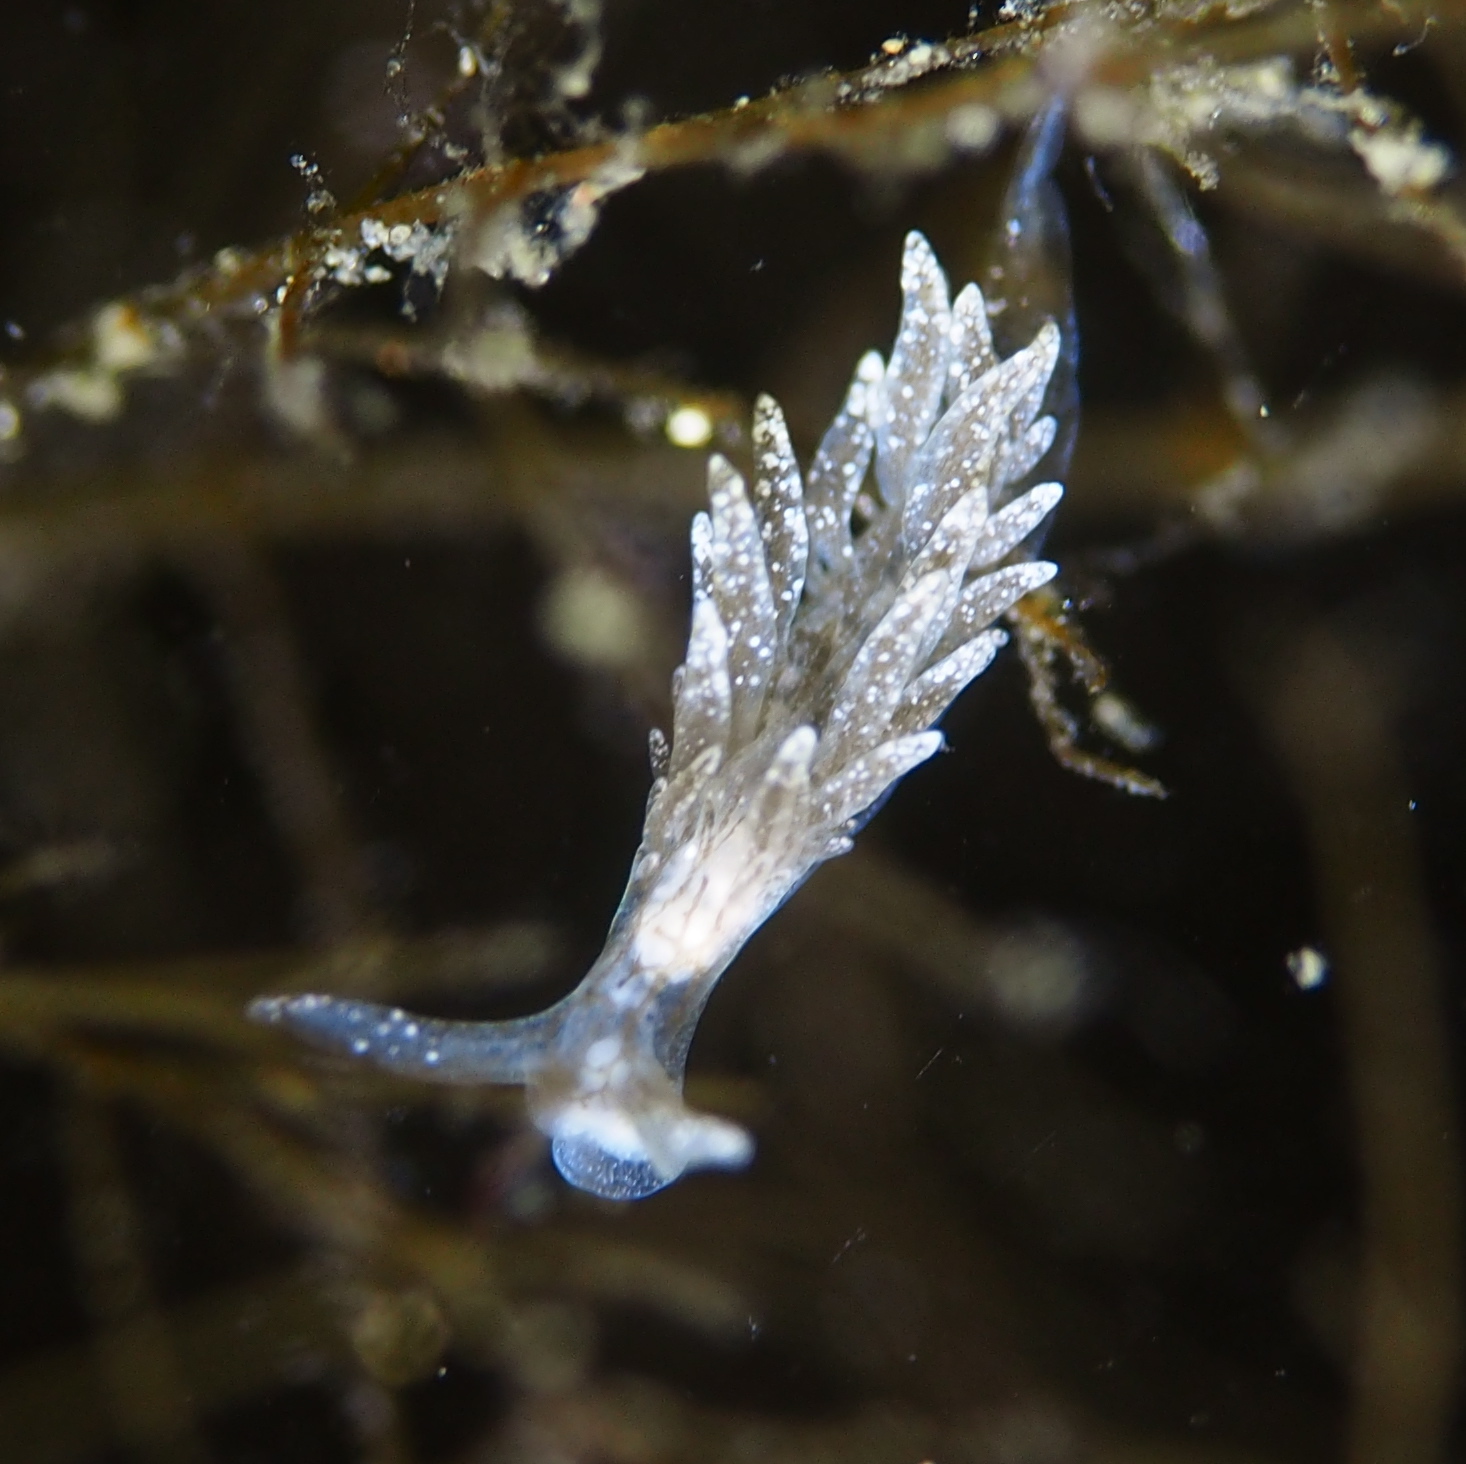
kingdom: Animalia
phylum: Mollusca
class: Gastropoda
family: Limapontiidae
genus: Placida
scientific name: Placida dendritica
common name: Dendritic nudibranch
